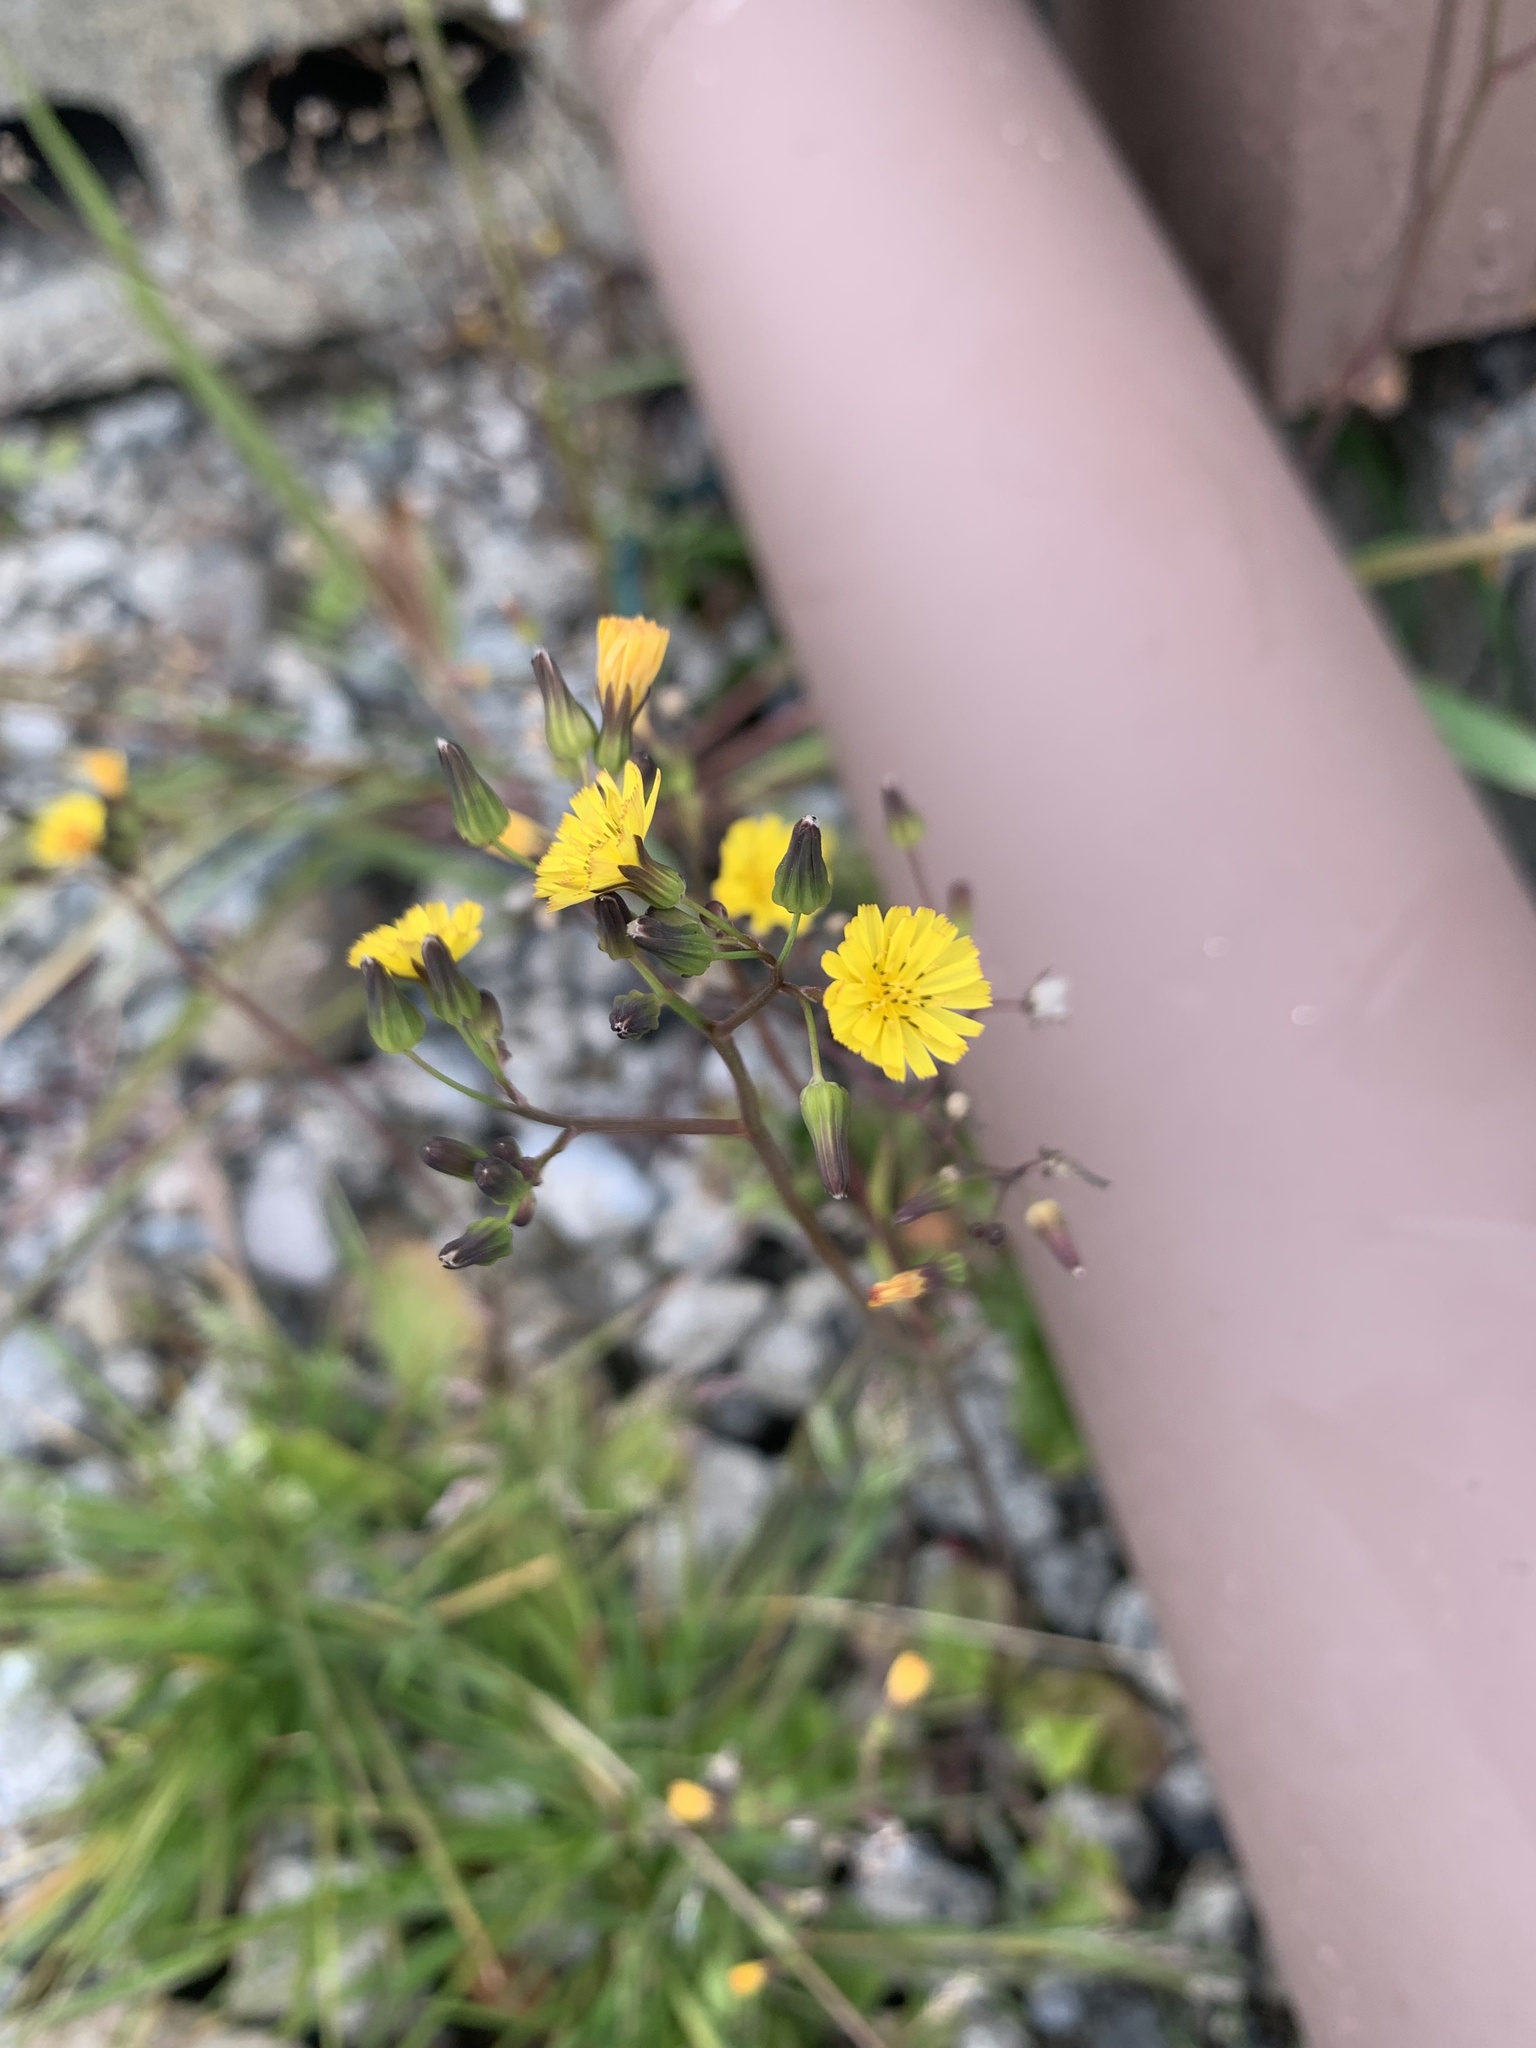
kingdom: Plantae
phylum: Tracheophyta
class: Magnoliopsida
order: Asterales
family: Asteraceae
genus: Youngia
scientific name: Youngia japonica
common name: Oriental false hawksbeard
